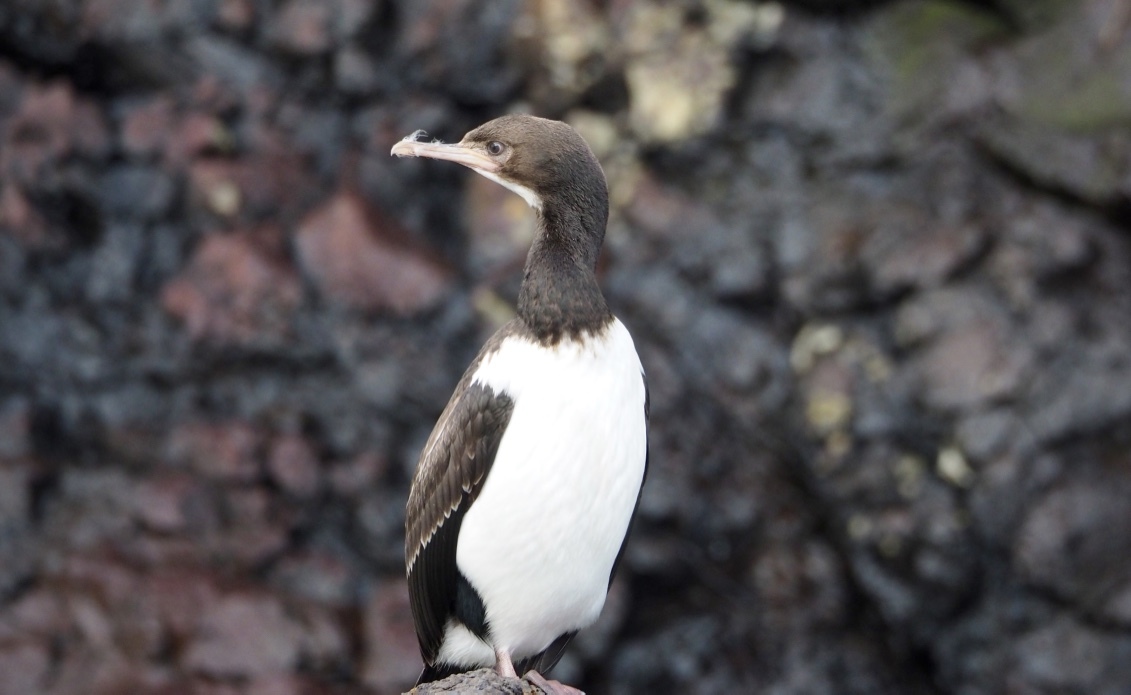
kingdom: Animalia
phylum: Chordata
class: Aves
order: Suliformes
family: Phalacrocoracidae
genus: Leucocarbo
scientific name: Leucocarbo campbelli
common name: Campbell shag
